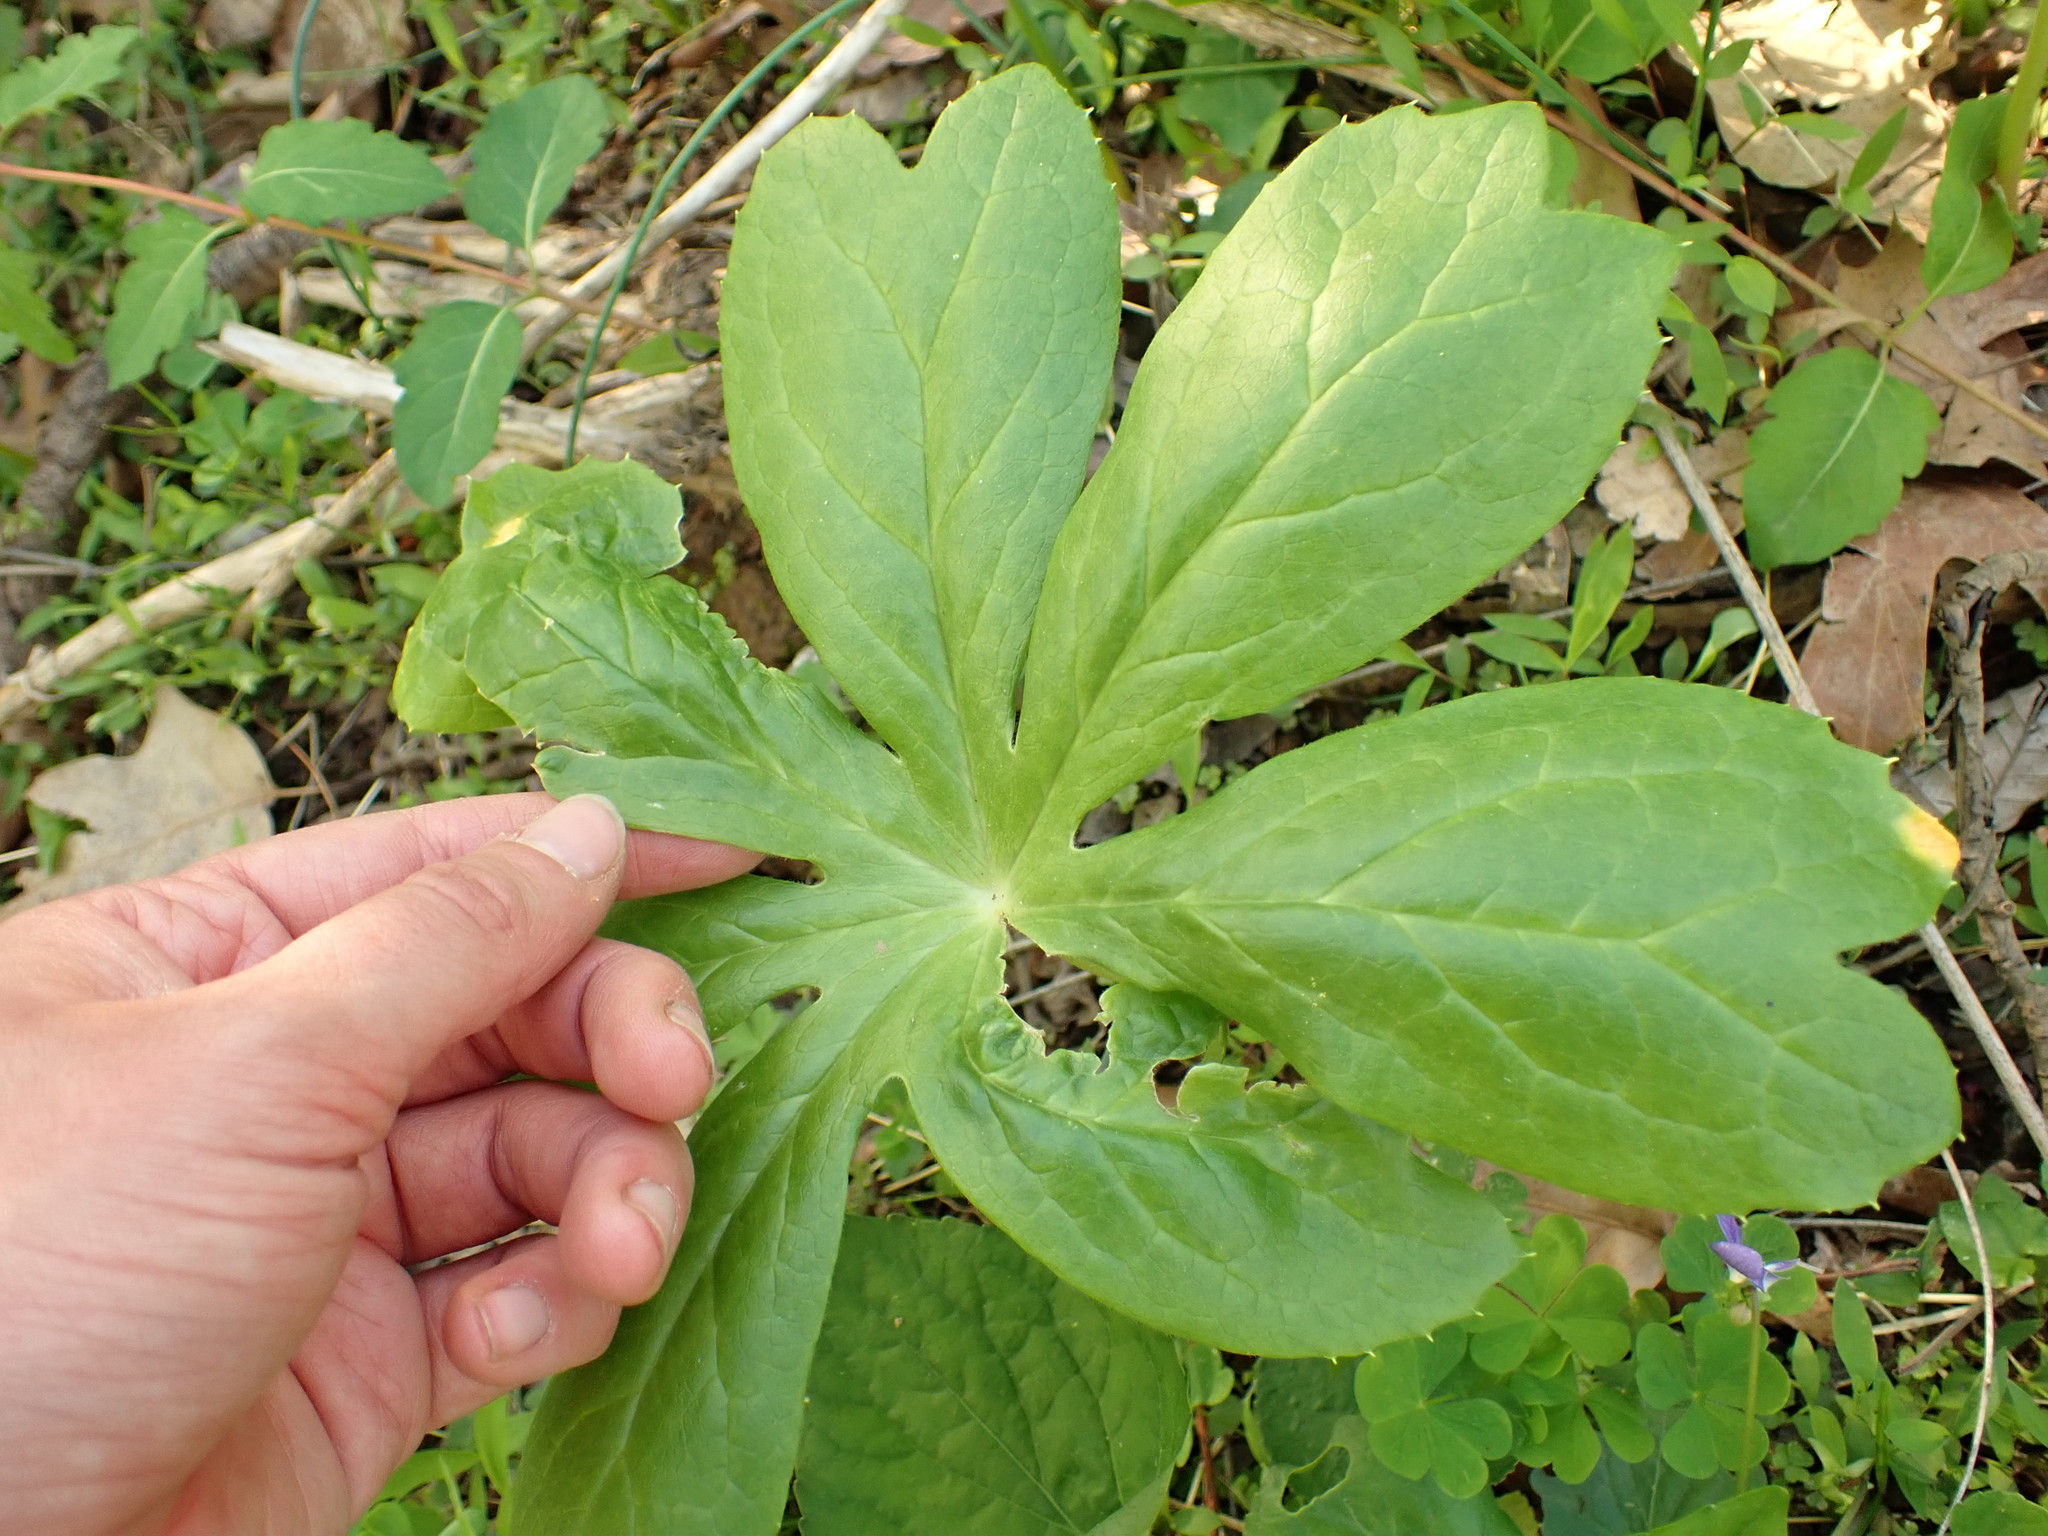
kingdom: Plantae
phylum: Tracheophyta
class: Magnoliopsida
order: Ranunculales
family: Berberidaceae
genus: Podophyllum
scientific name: Podophyllum peltatum
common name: Wild mandrake
